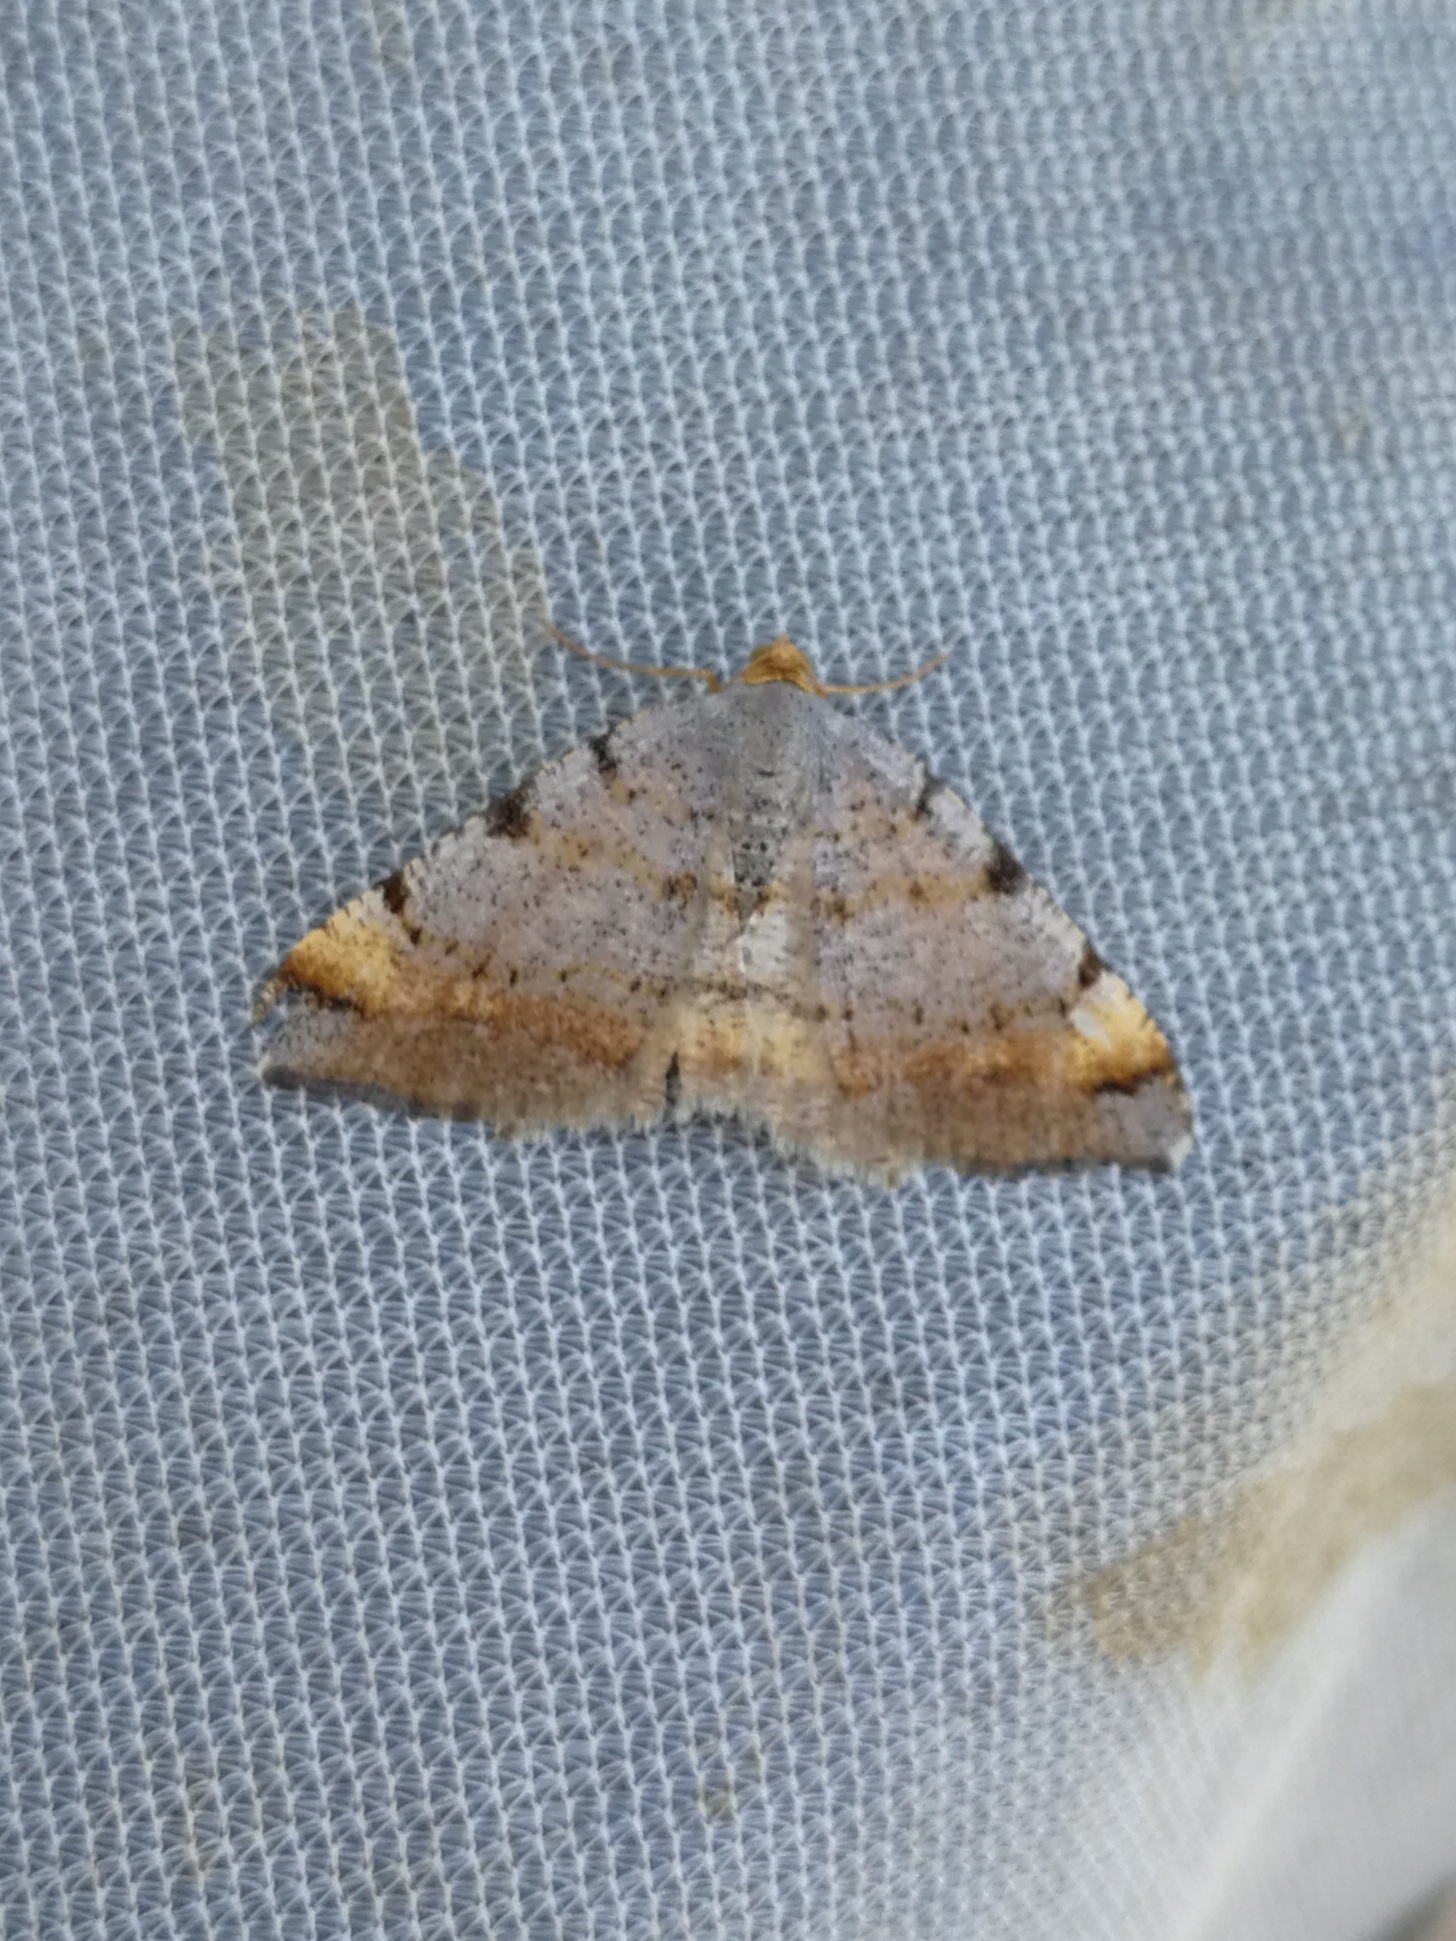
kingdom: Animalia
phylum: Arthropoda
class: Insecta
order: Lepidoptera
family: Geometridae
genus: Macaria
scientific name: Macaria liturata
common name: Tawny-barred angle
